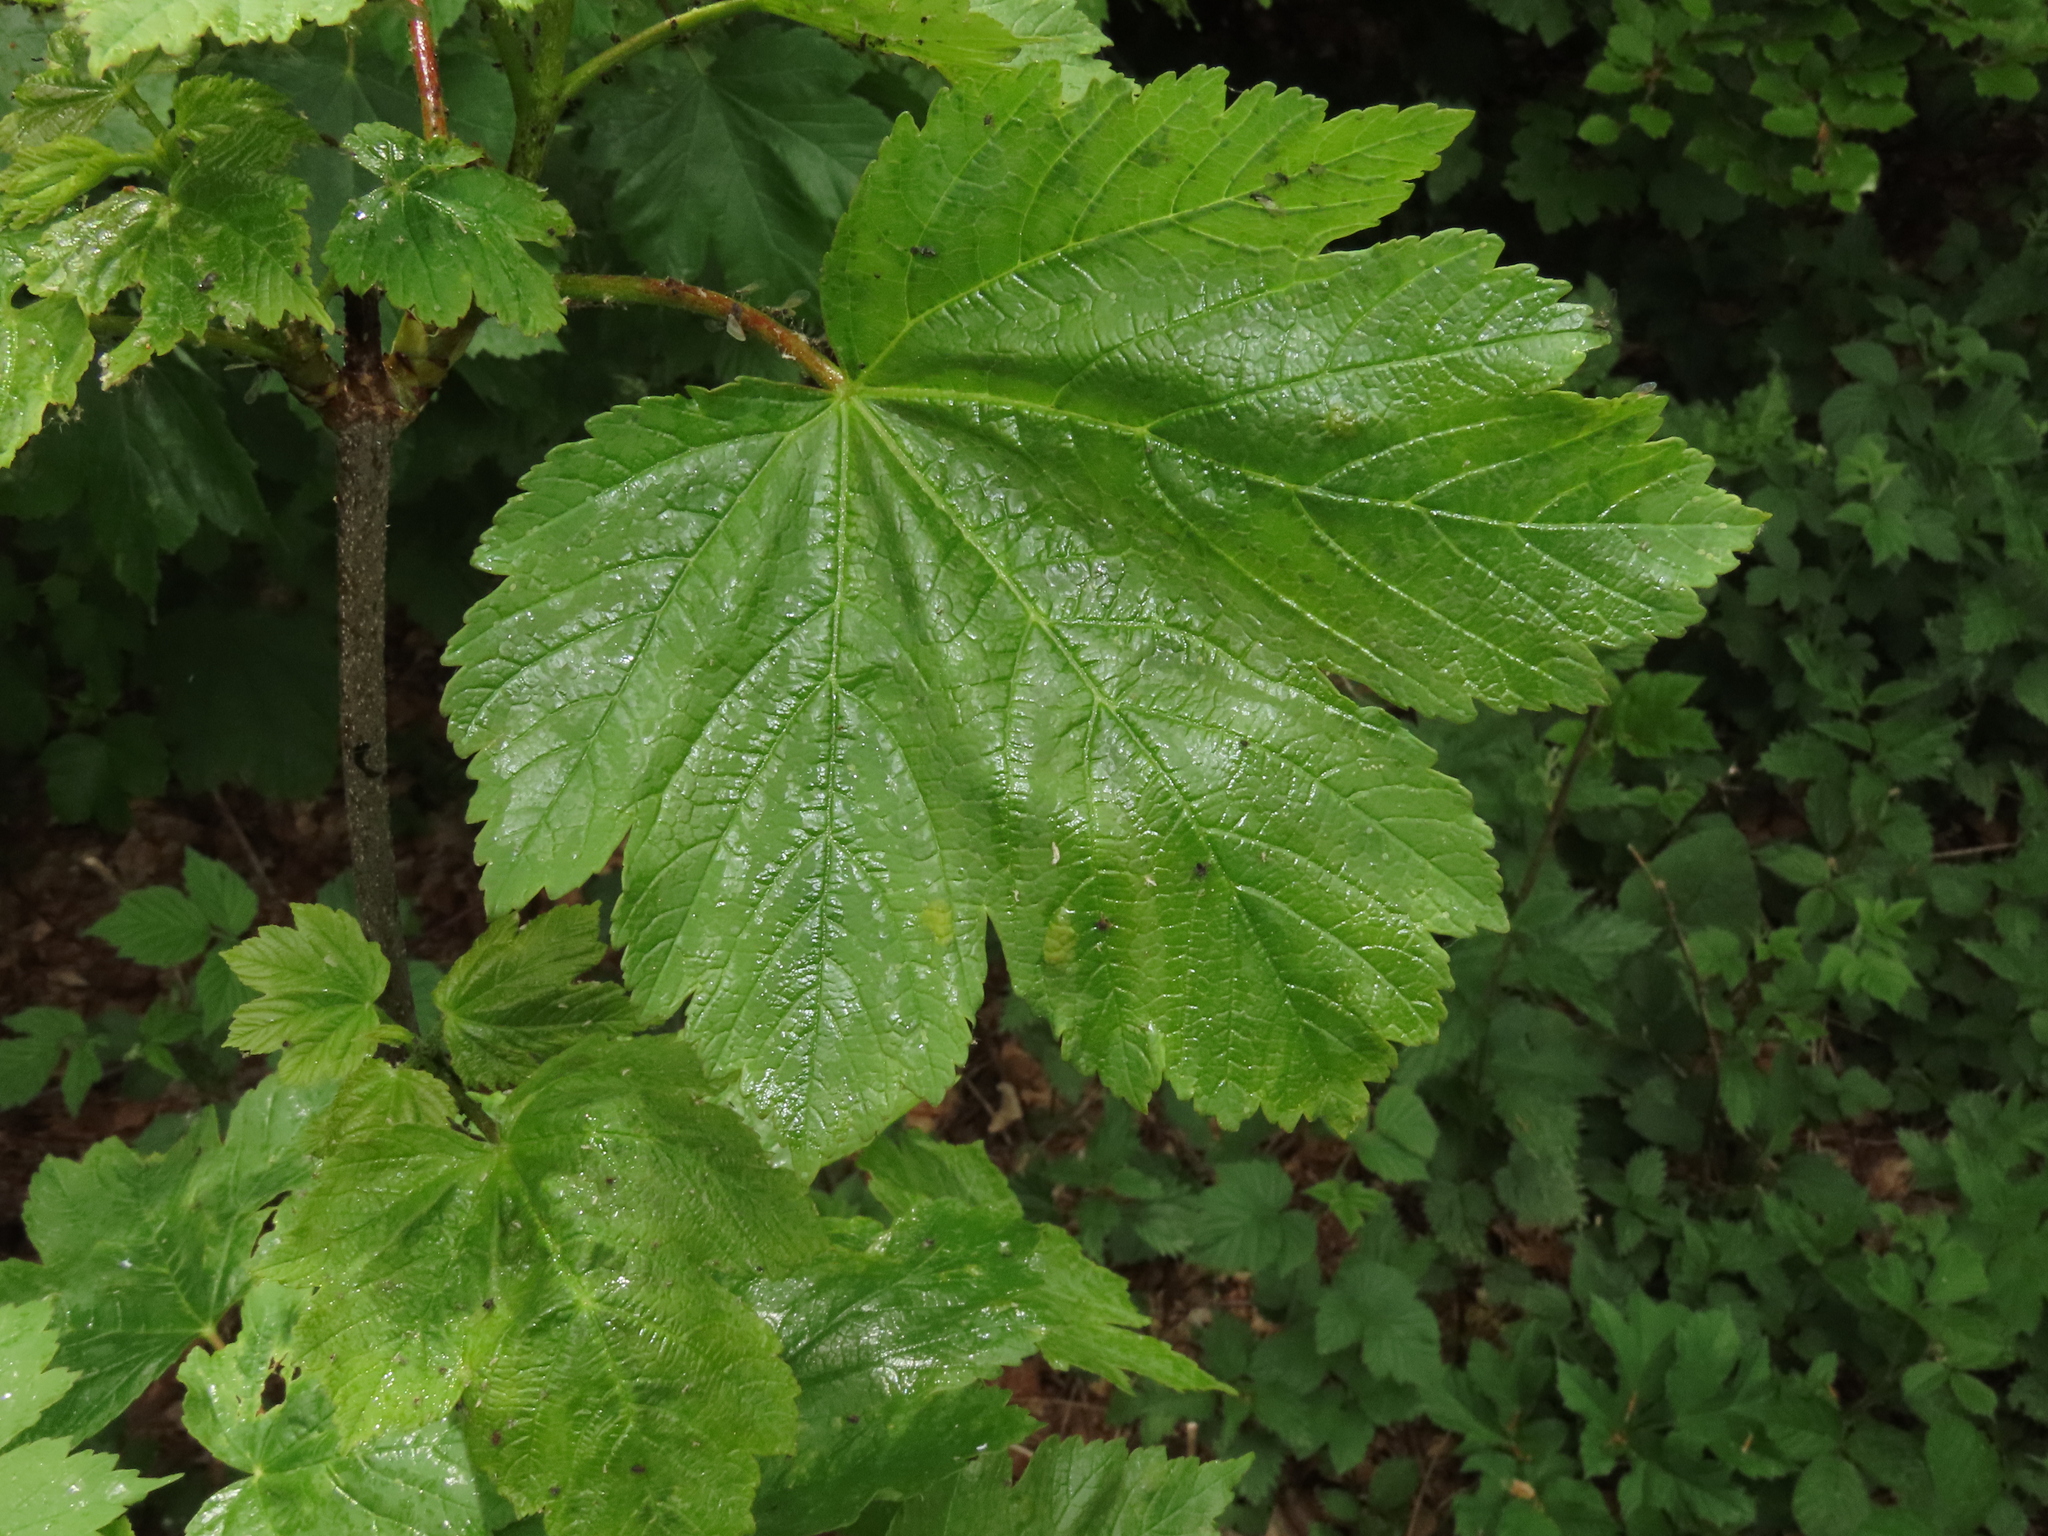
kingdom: Plantae
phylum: Tracheophyta
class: Magnoliopsida
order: Sapindales
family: Sapindaceae
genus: Acer
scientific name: Acer pseudoplatanus
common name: Sycamore
